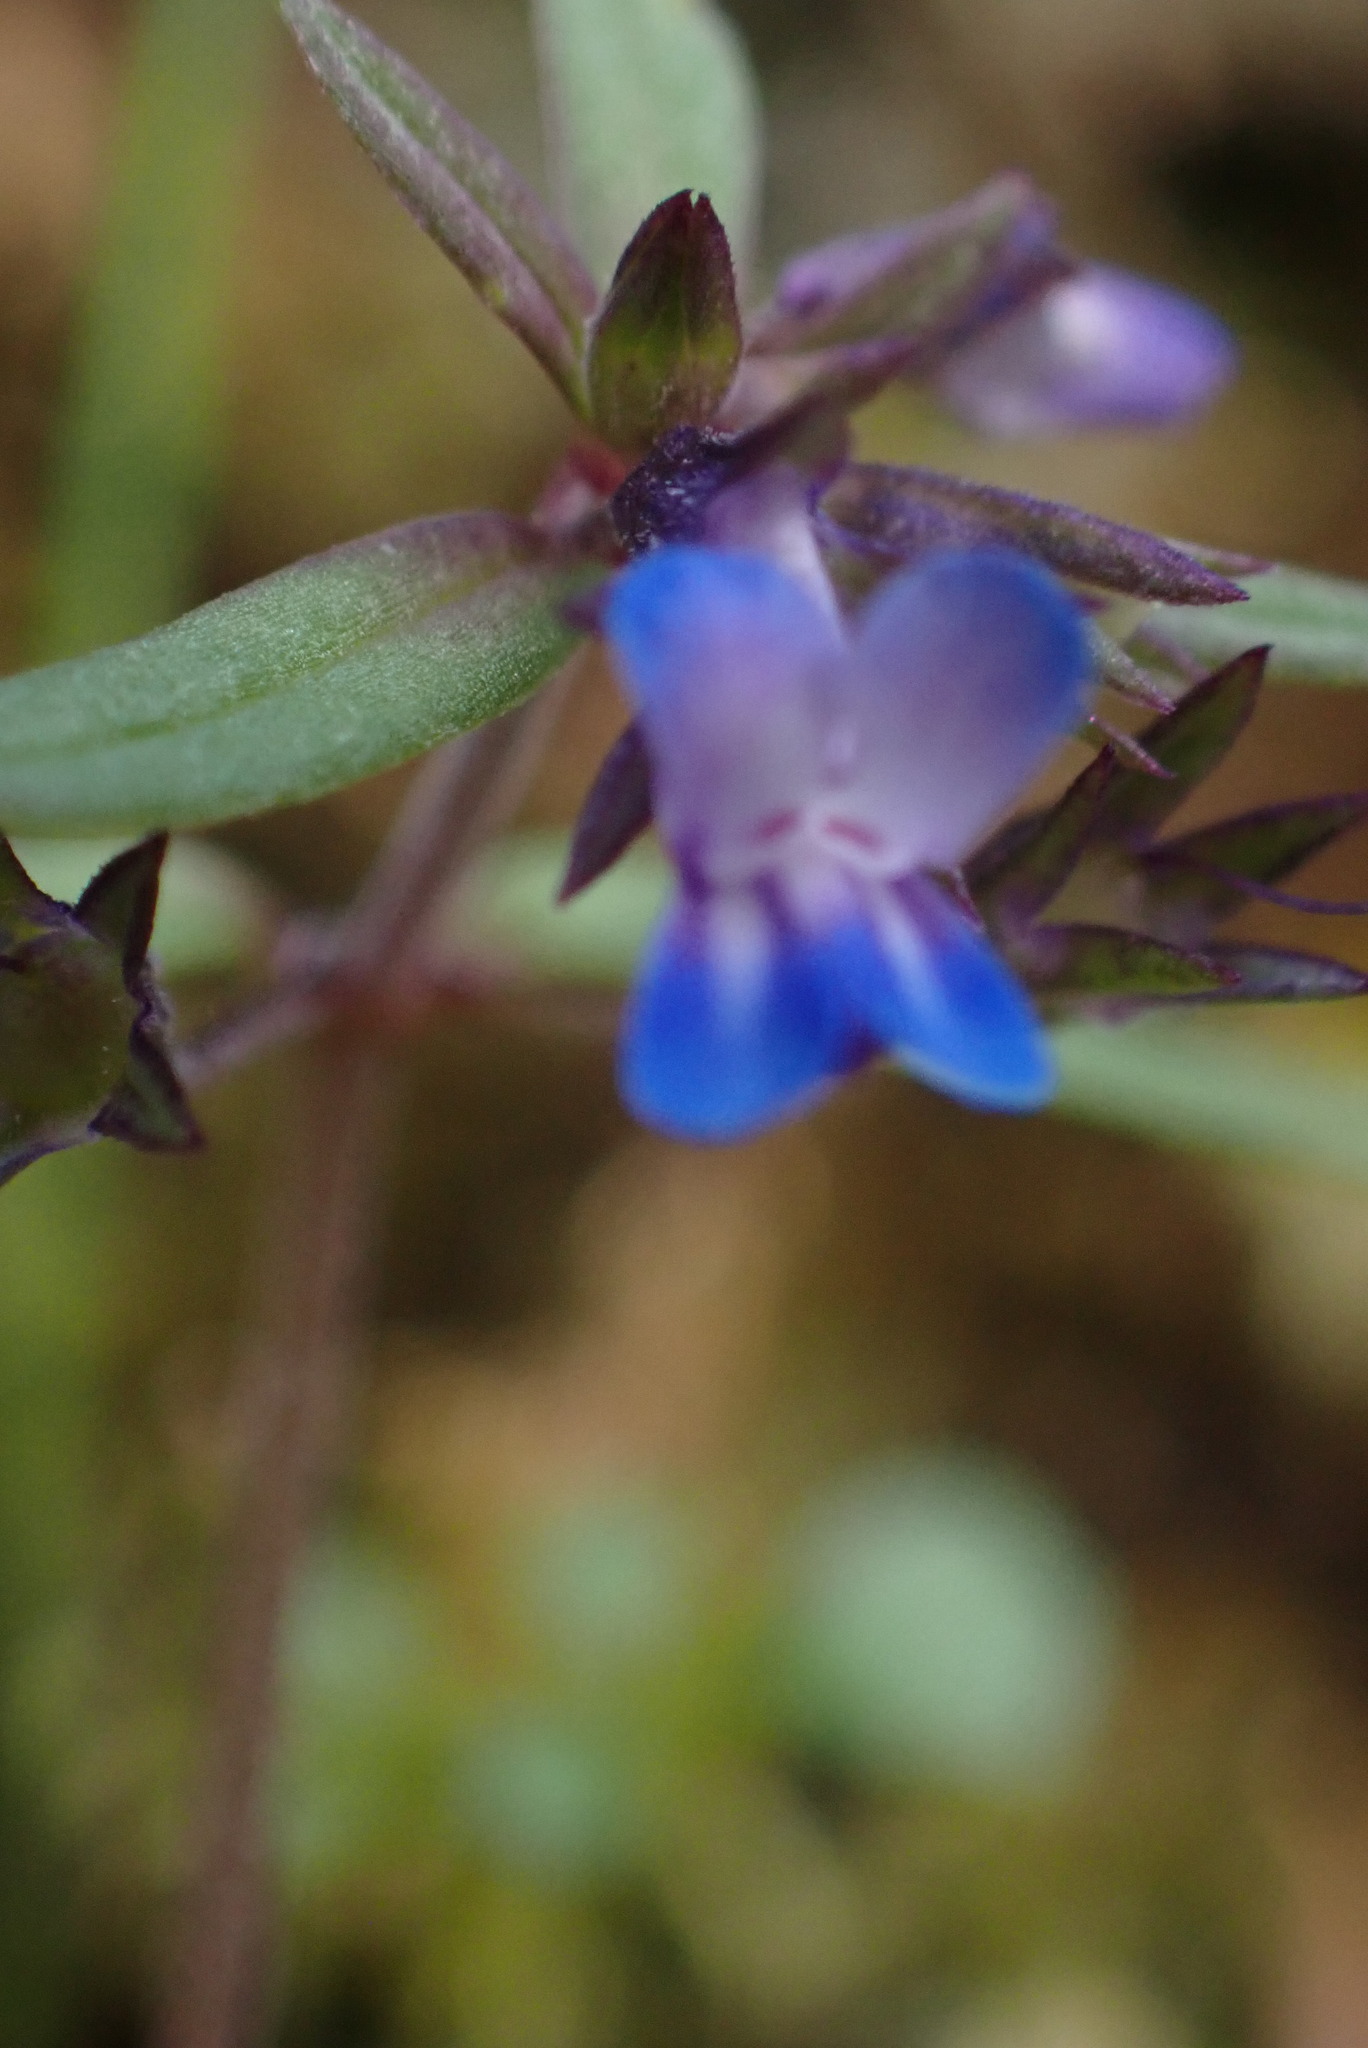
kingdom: Plantae
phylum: Tracheophyta
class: Magnoliopsida
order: Lamiales
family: Plantaginaceae
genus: Collinsia
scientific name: Collinsia parviflora
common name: Blue-lips
